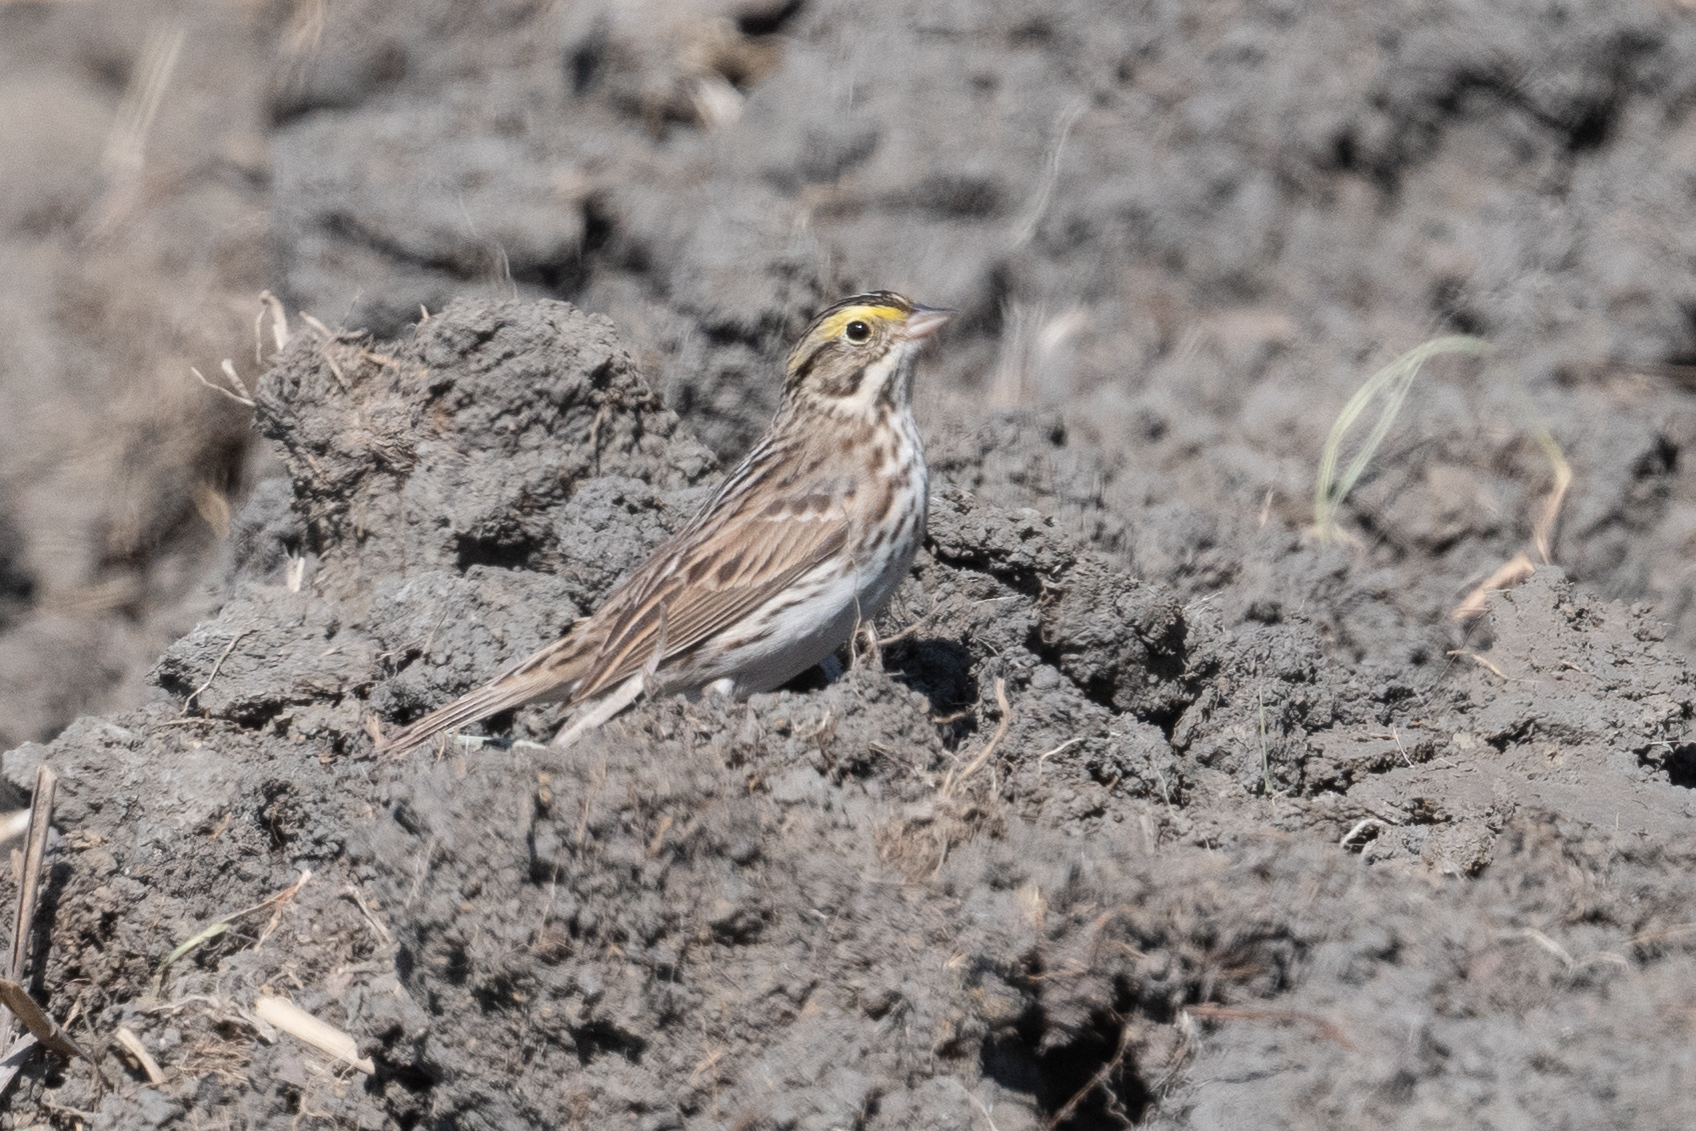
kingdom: Animalia
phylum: Chordata
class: Aves
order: Passeriformes
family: Passerellidae
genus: Passerculus
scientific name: Passerculus sandwichensis
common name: Savannah sparrow
